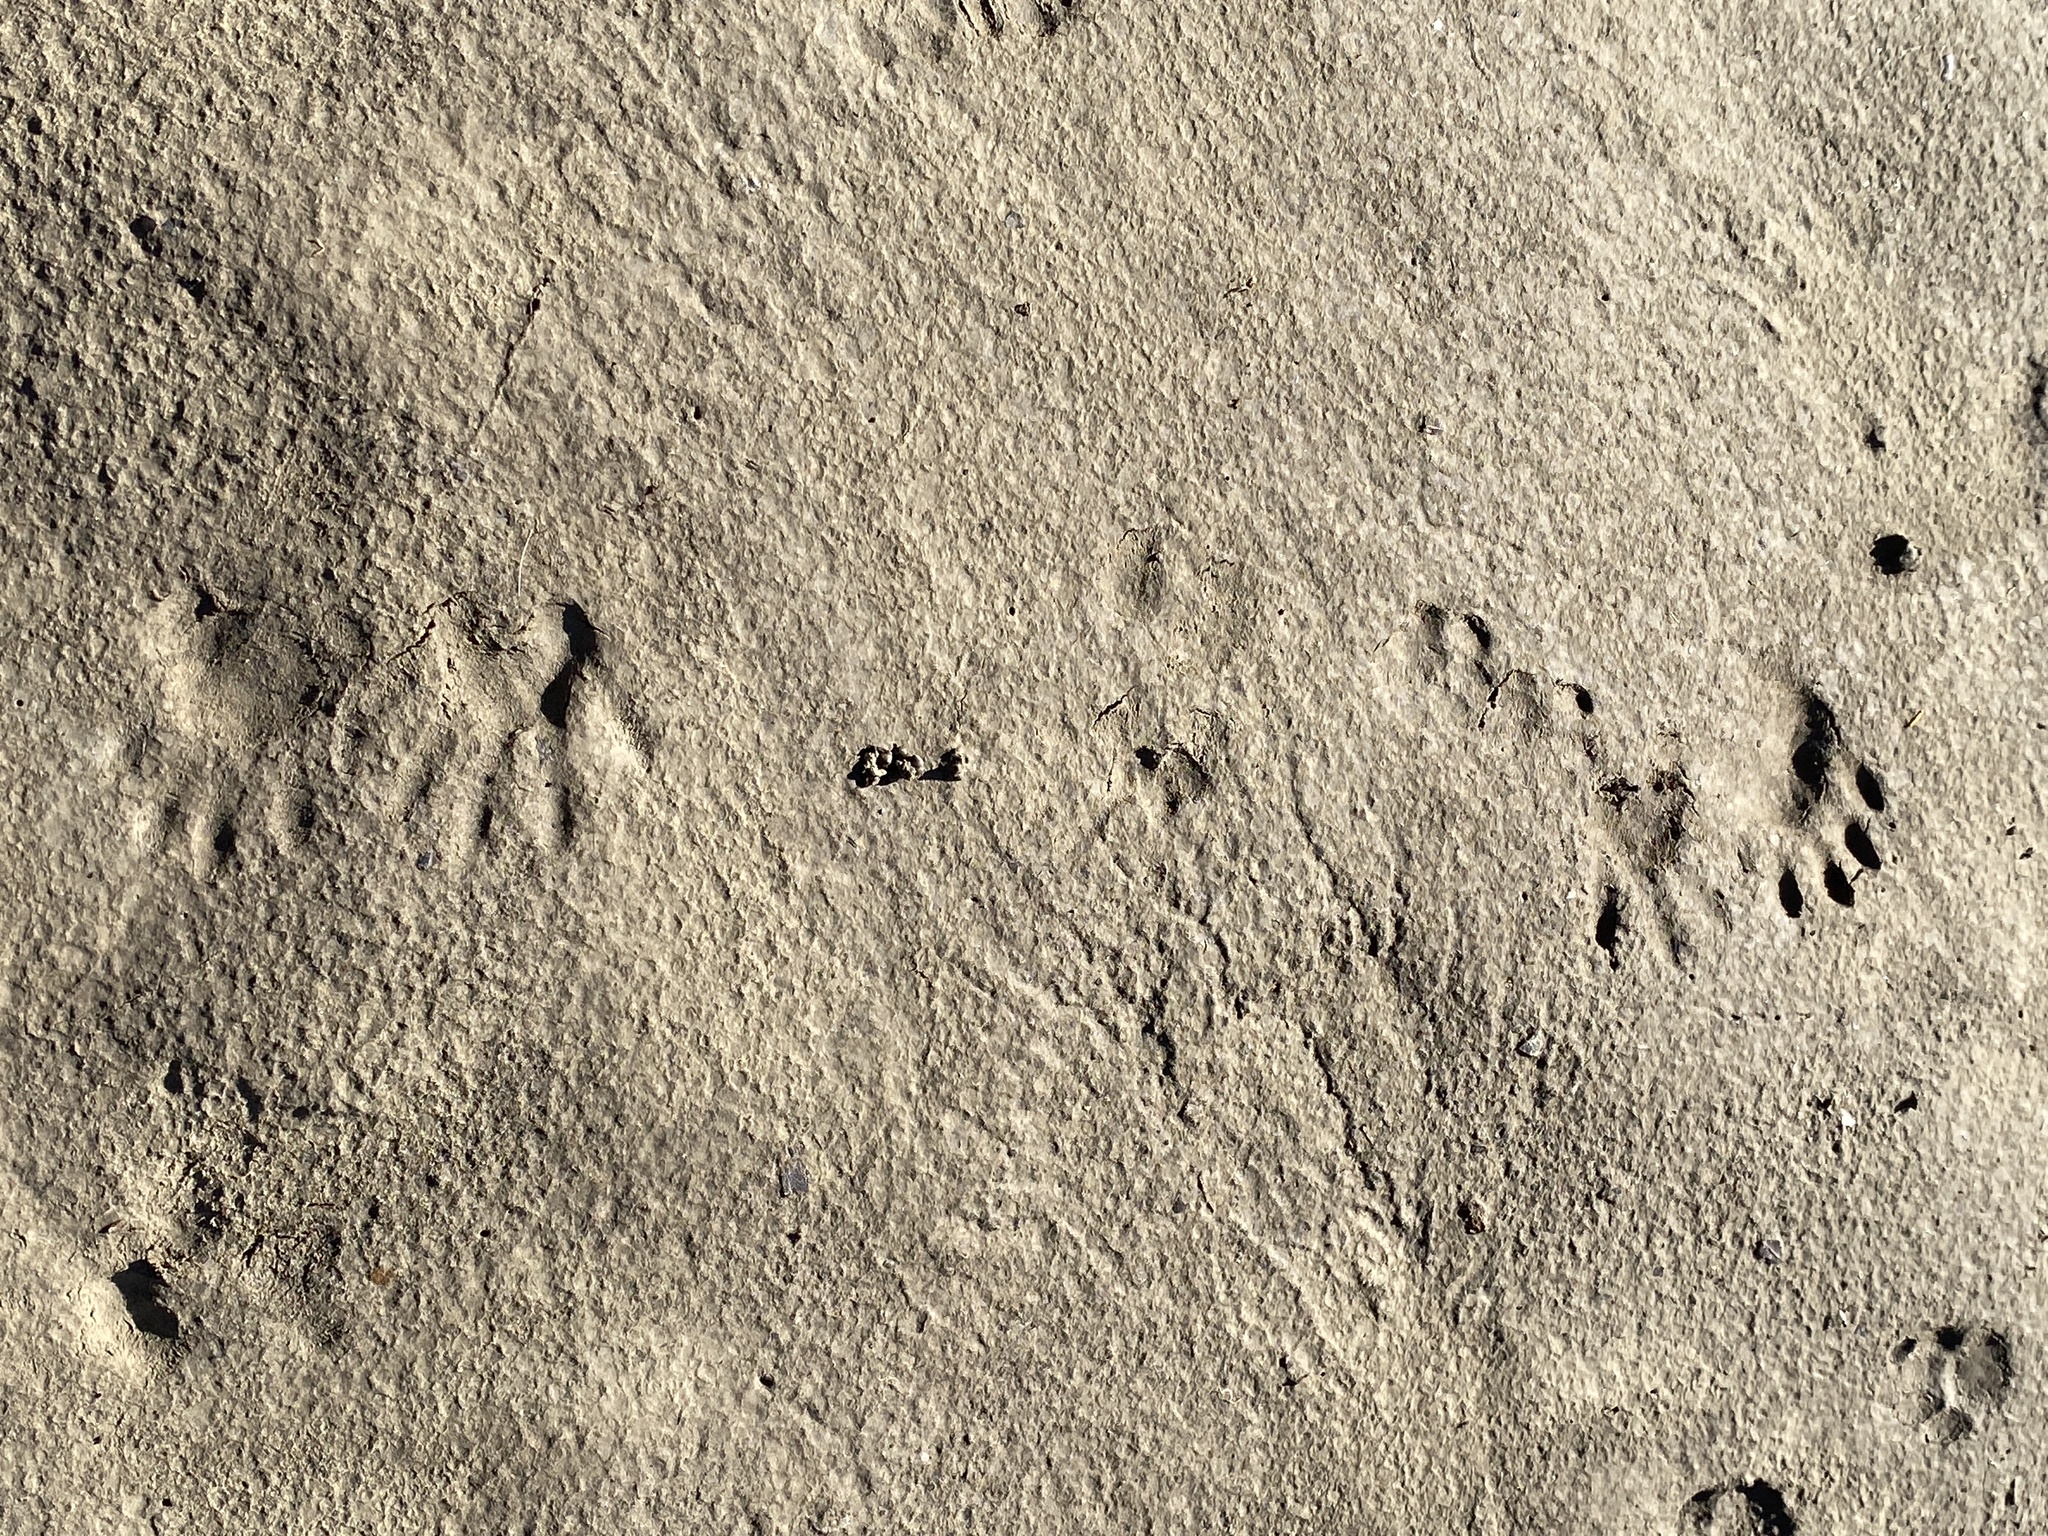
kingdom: Animalia
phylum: Chordata
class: Mammalia
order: Carnivora
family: Procyonidae
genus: Procyon
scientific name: Procyon lotor
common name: Raccoon
